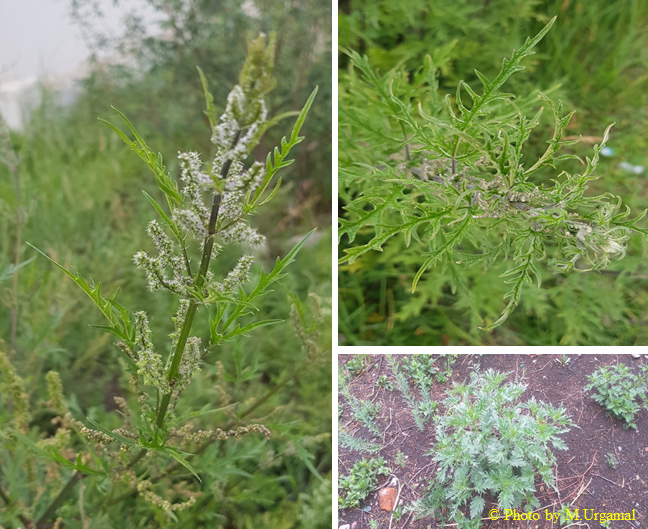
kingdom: Plantae
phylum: Tracheophyta
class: Magnoliopsida
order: Rosales
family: Urticaceae
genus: Urtica
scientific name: Urtica cannabina
